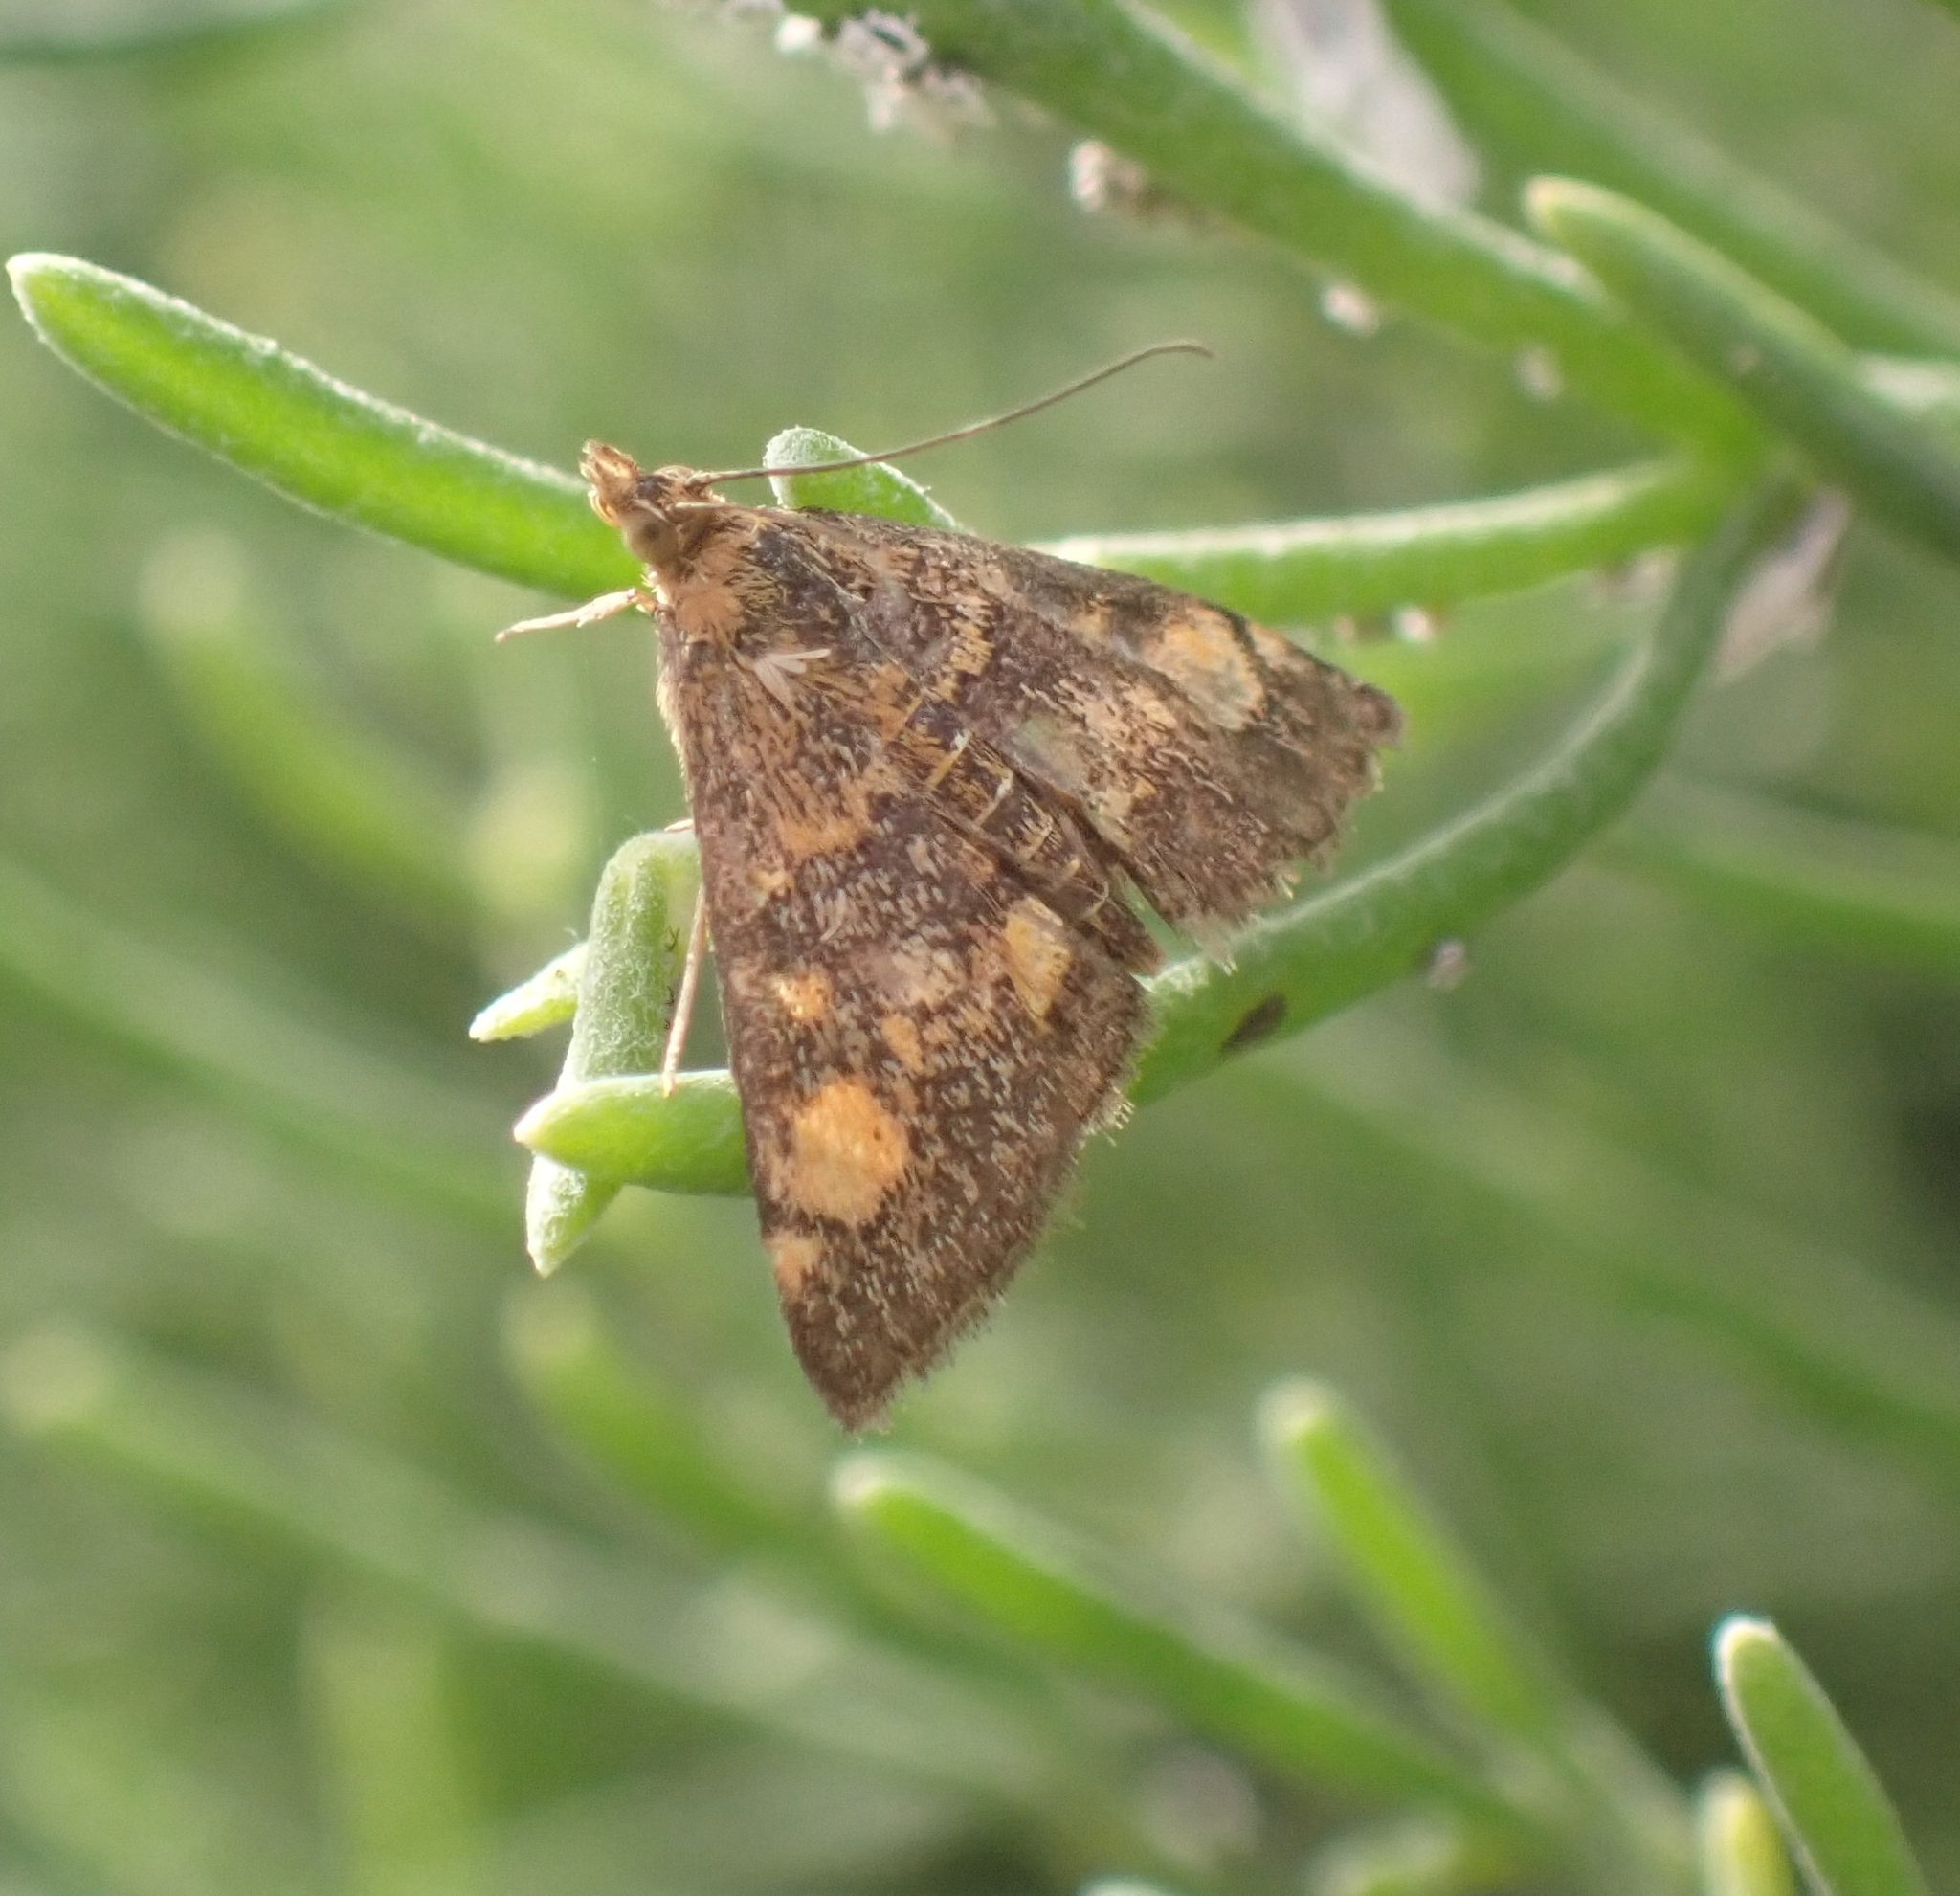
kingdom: Animalia
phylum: Arthropoda
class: Insecta
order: Lepidoptera
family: Crambidae
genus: Pyrausta
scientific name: Pyrausta aurata
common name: Small purple & gold
